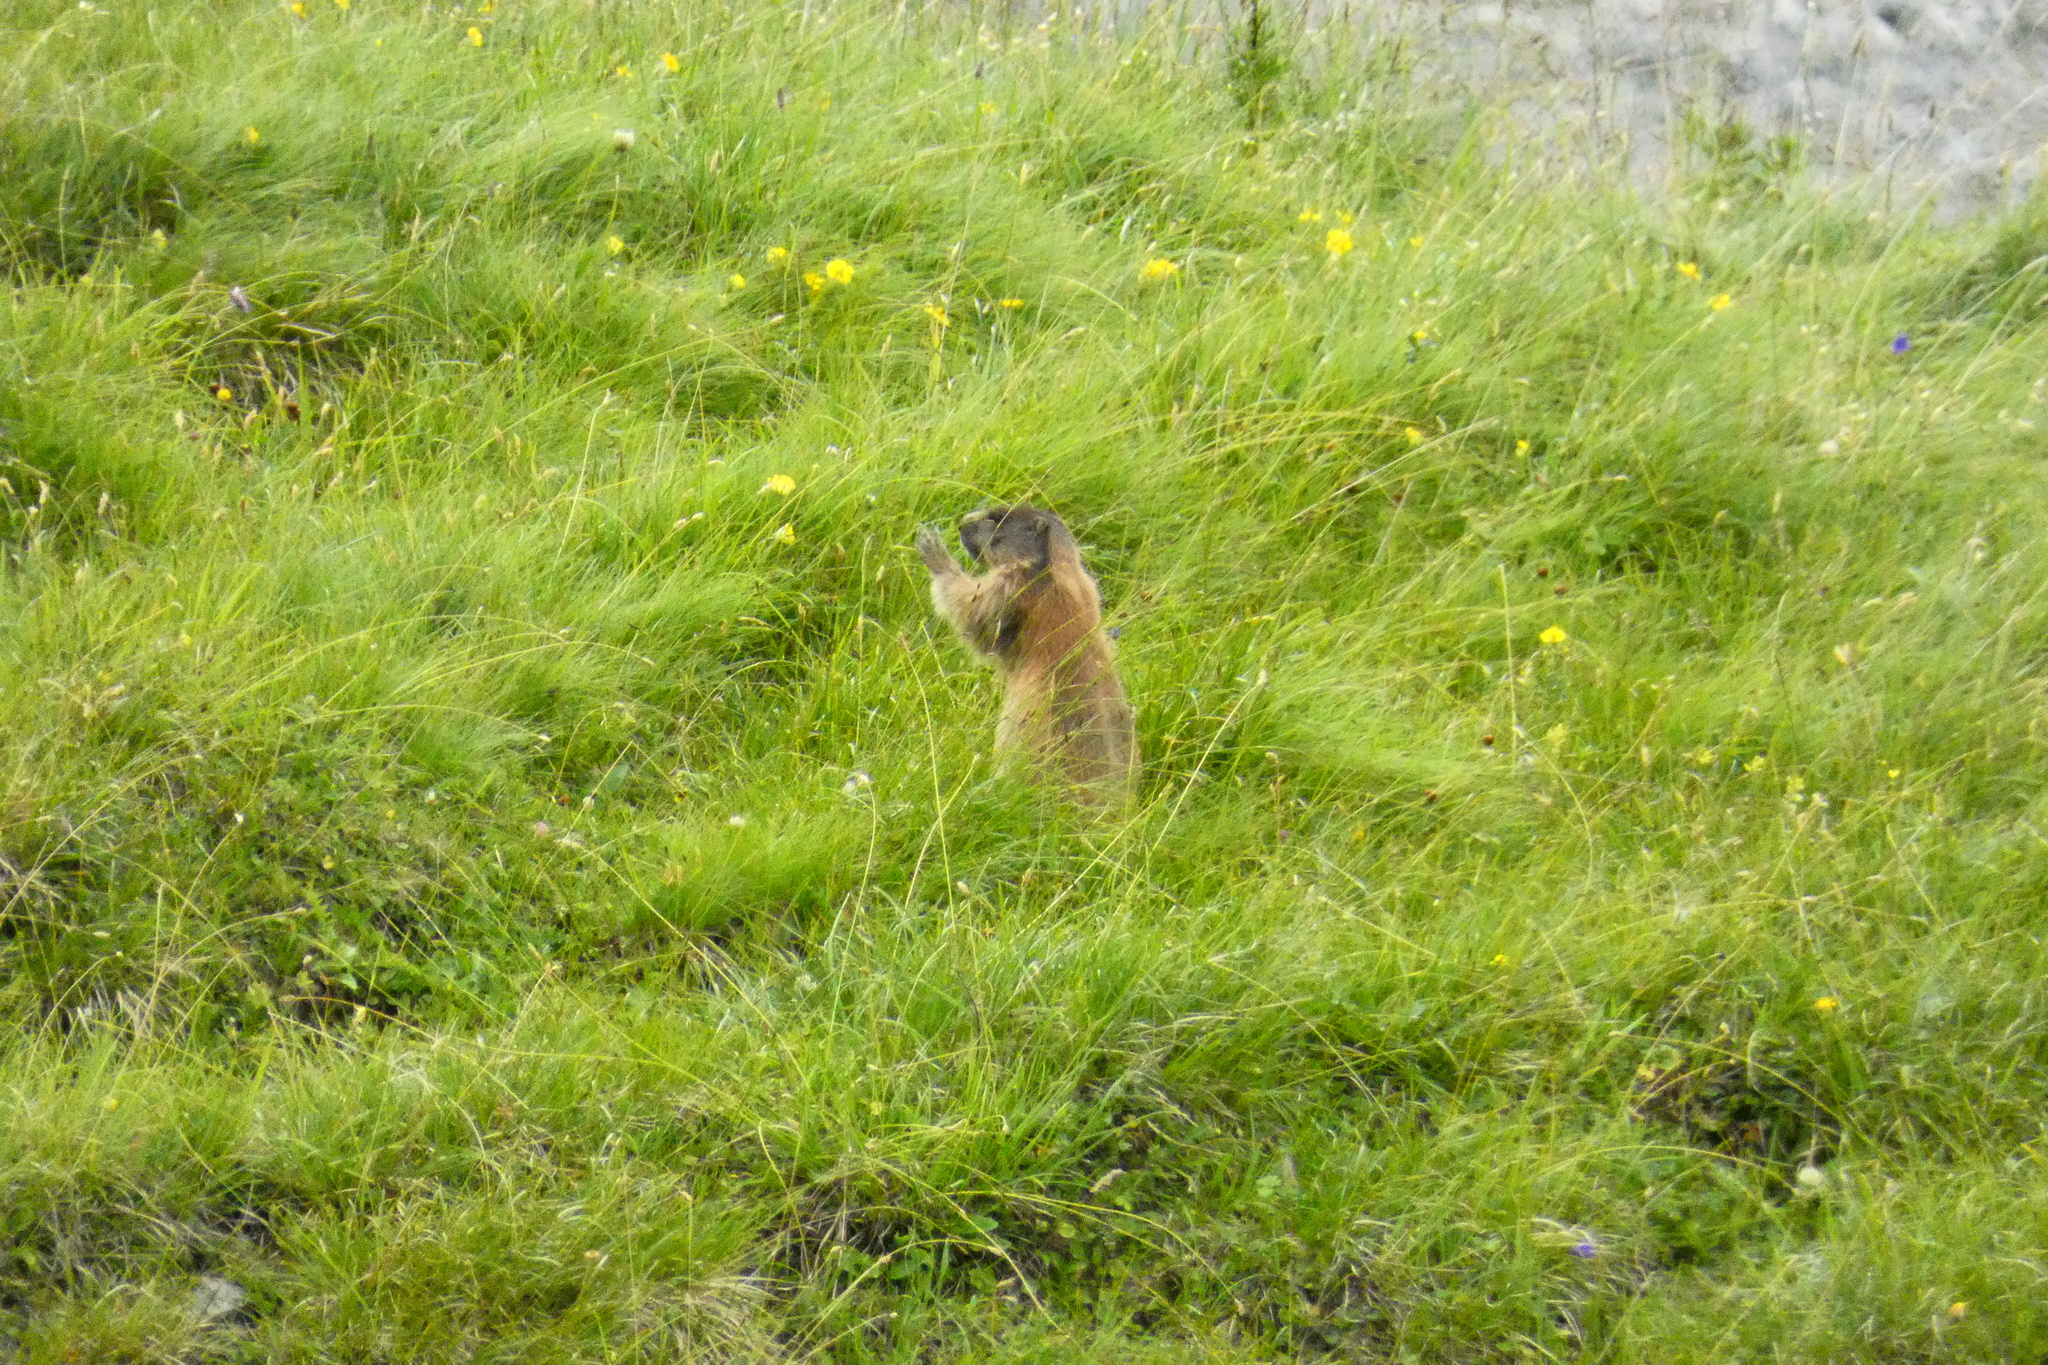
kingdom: Animalia
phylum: Chordata
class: Mammalia
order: Rodentia
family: Sciuridae
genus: Marmota
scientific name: Marmota marmota
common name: Alpine marmot
